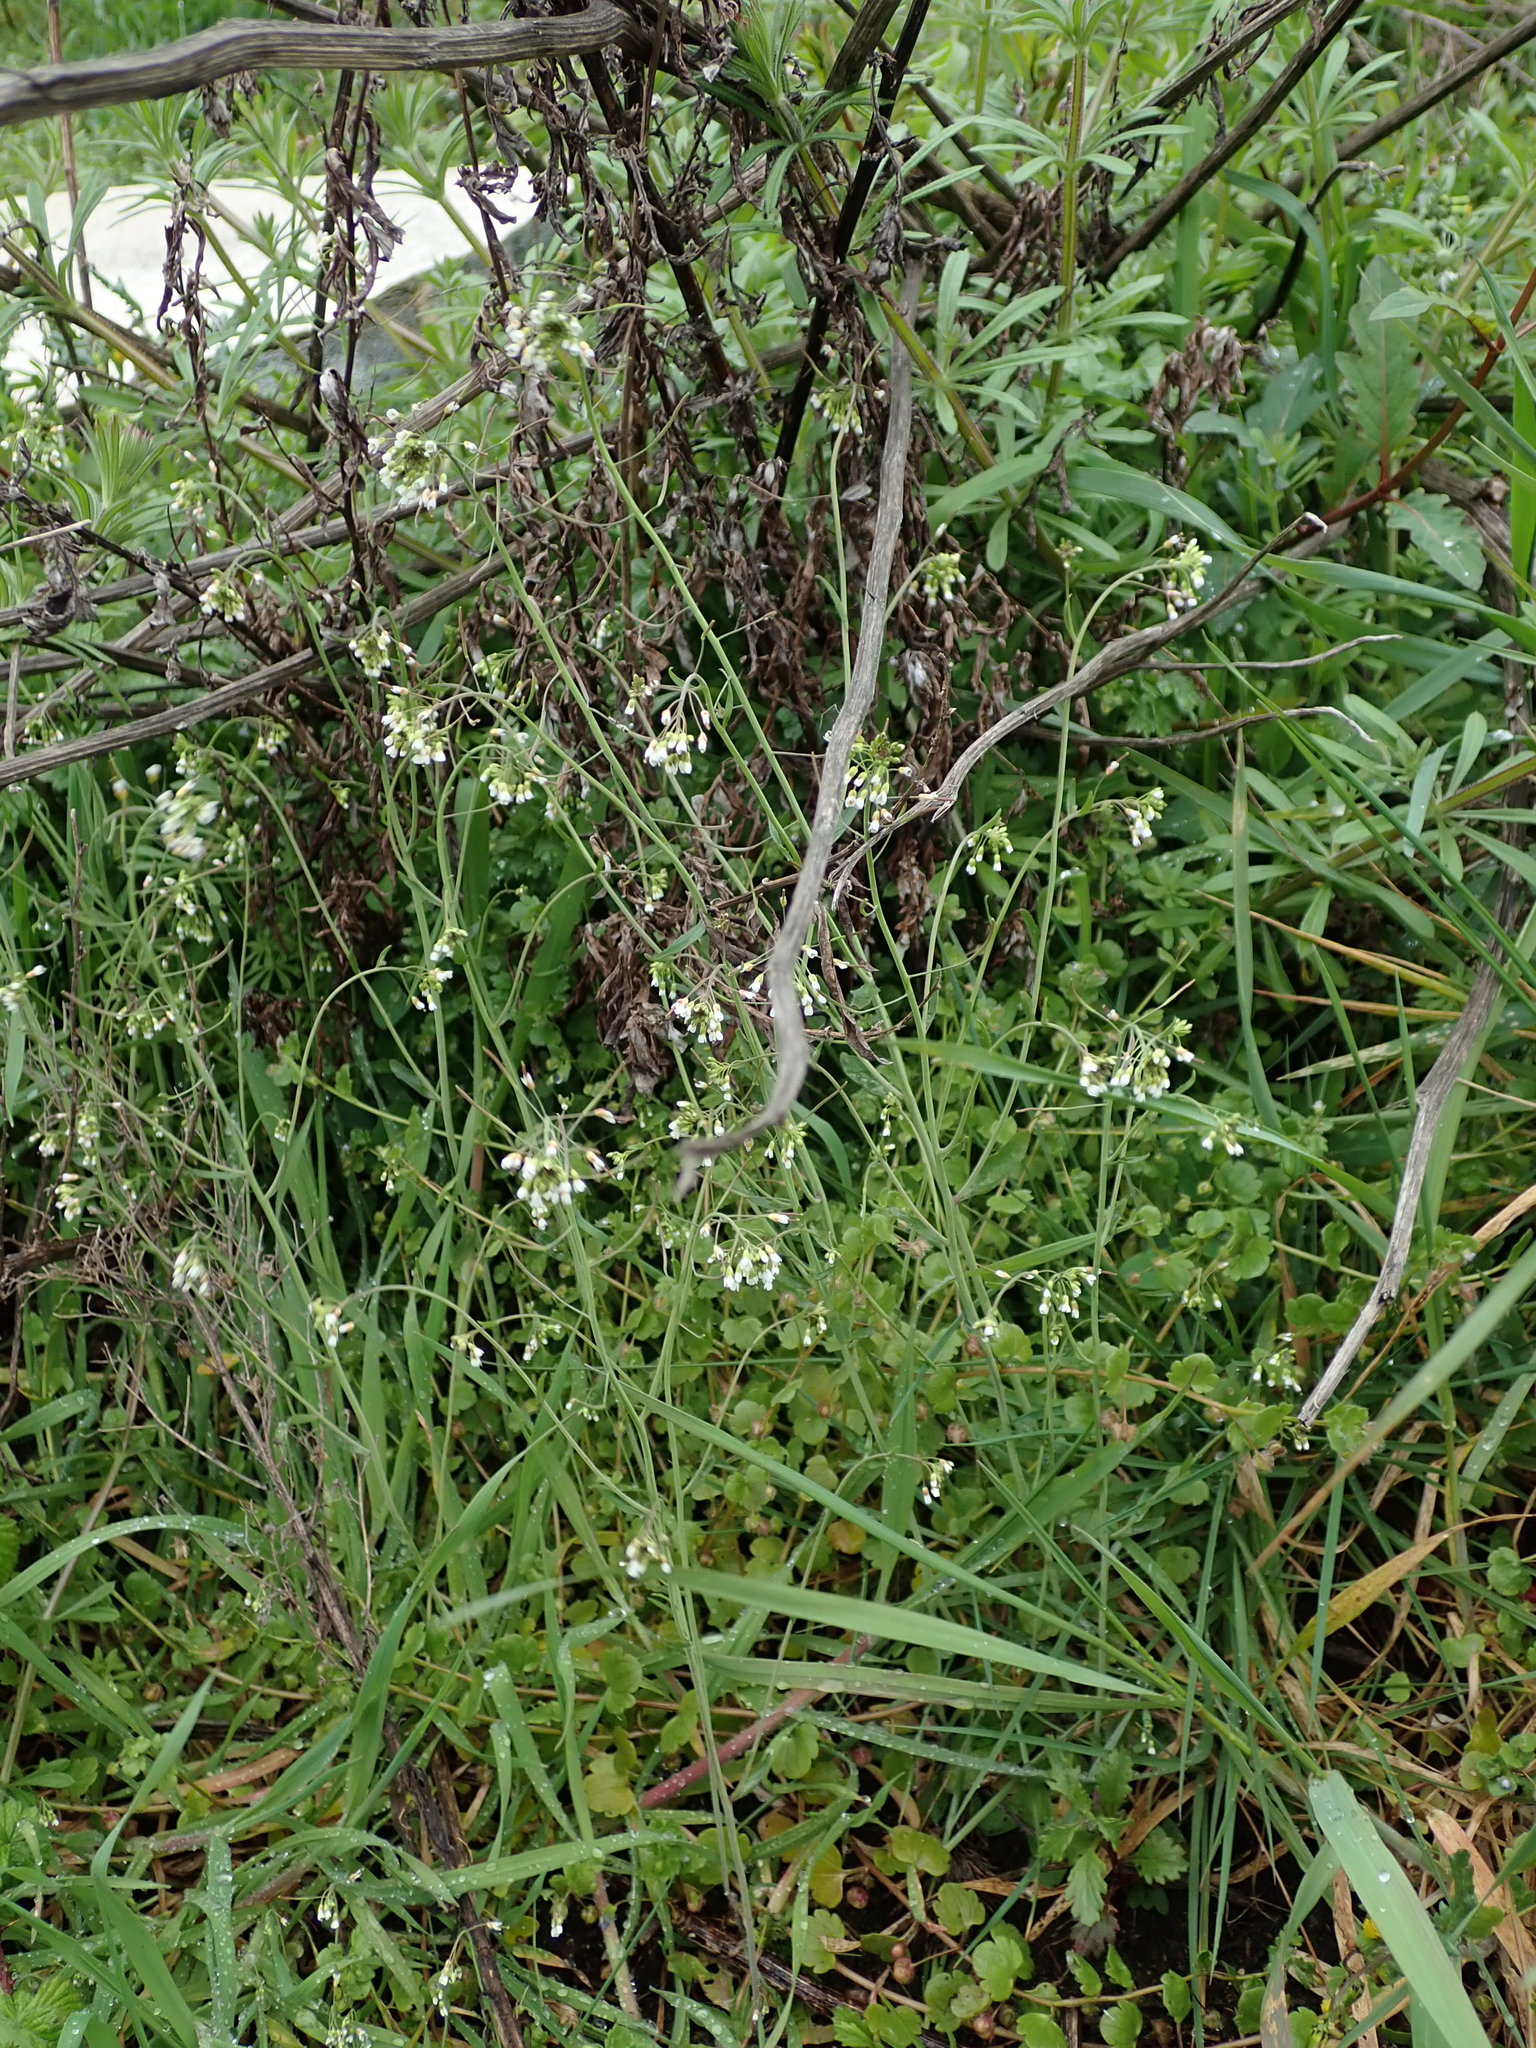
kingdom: Plantae
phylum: Tracheophyta
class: Magnoliopsida
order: Brassicales
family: Brassicaceae
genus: Arabidopsis
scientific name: Arabidopsis thaliana
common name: Thale cress
